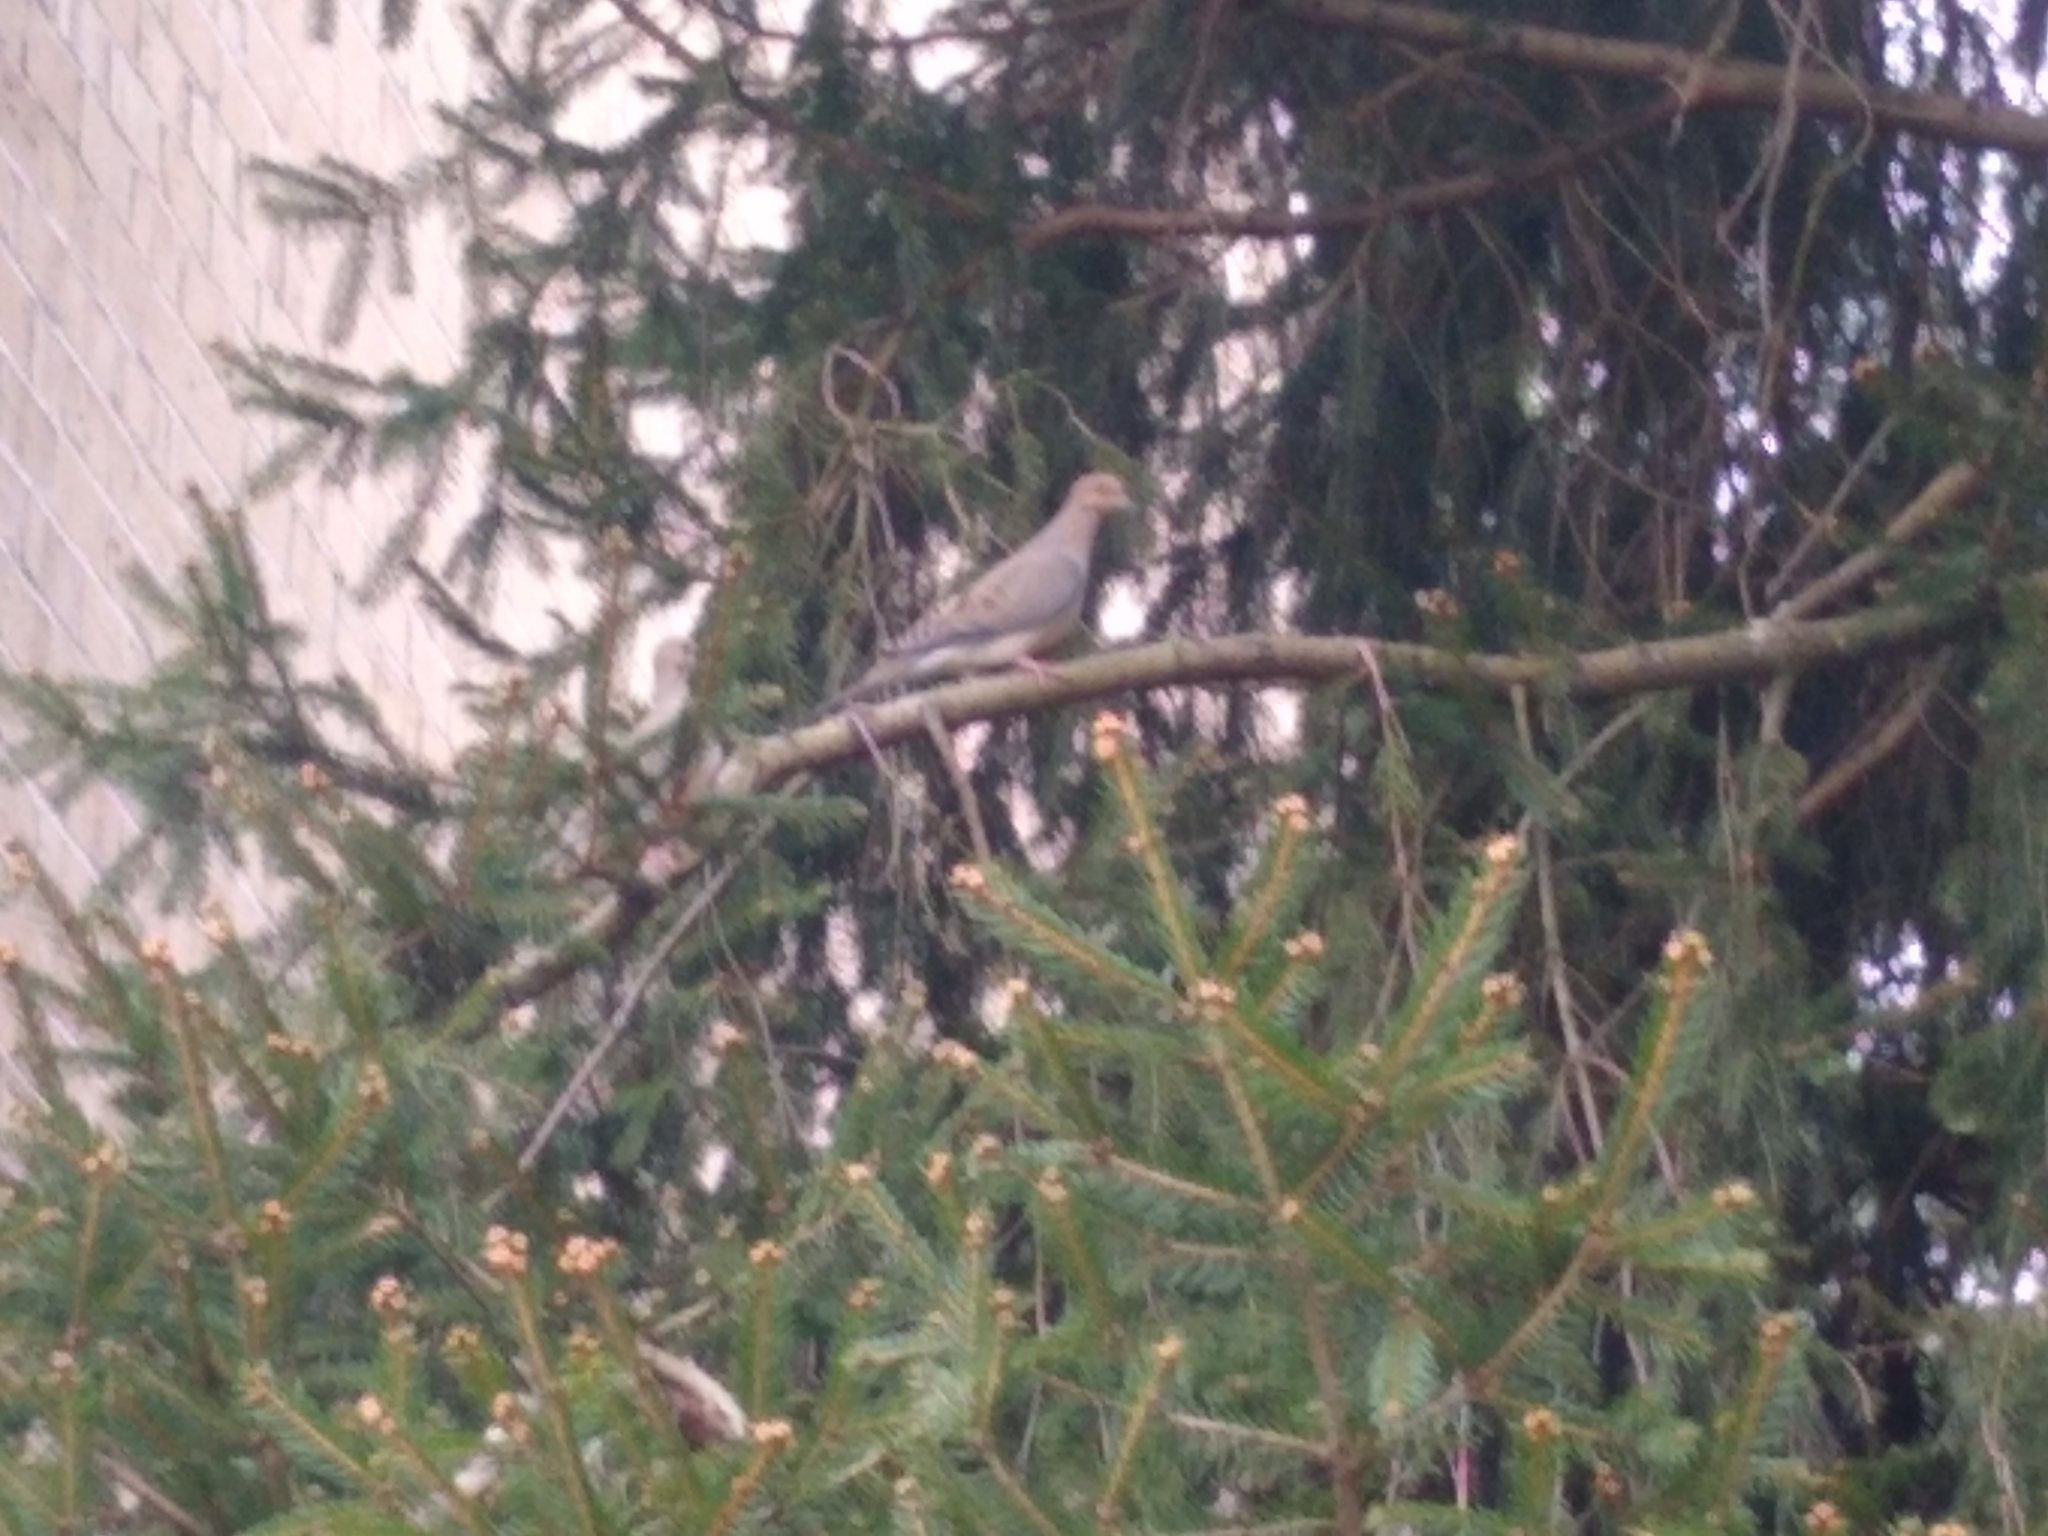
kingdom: Animalia
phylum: Chordata
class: Aves
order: Columbiformes
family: Columbidae
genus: Zenaida
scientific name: Zenaida macroura
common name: Mourning dove
